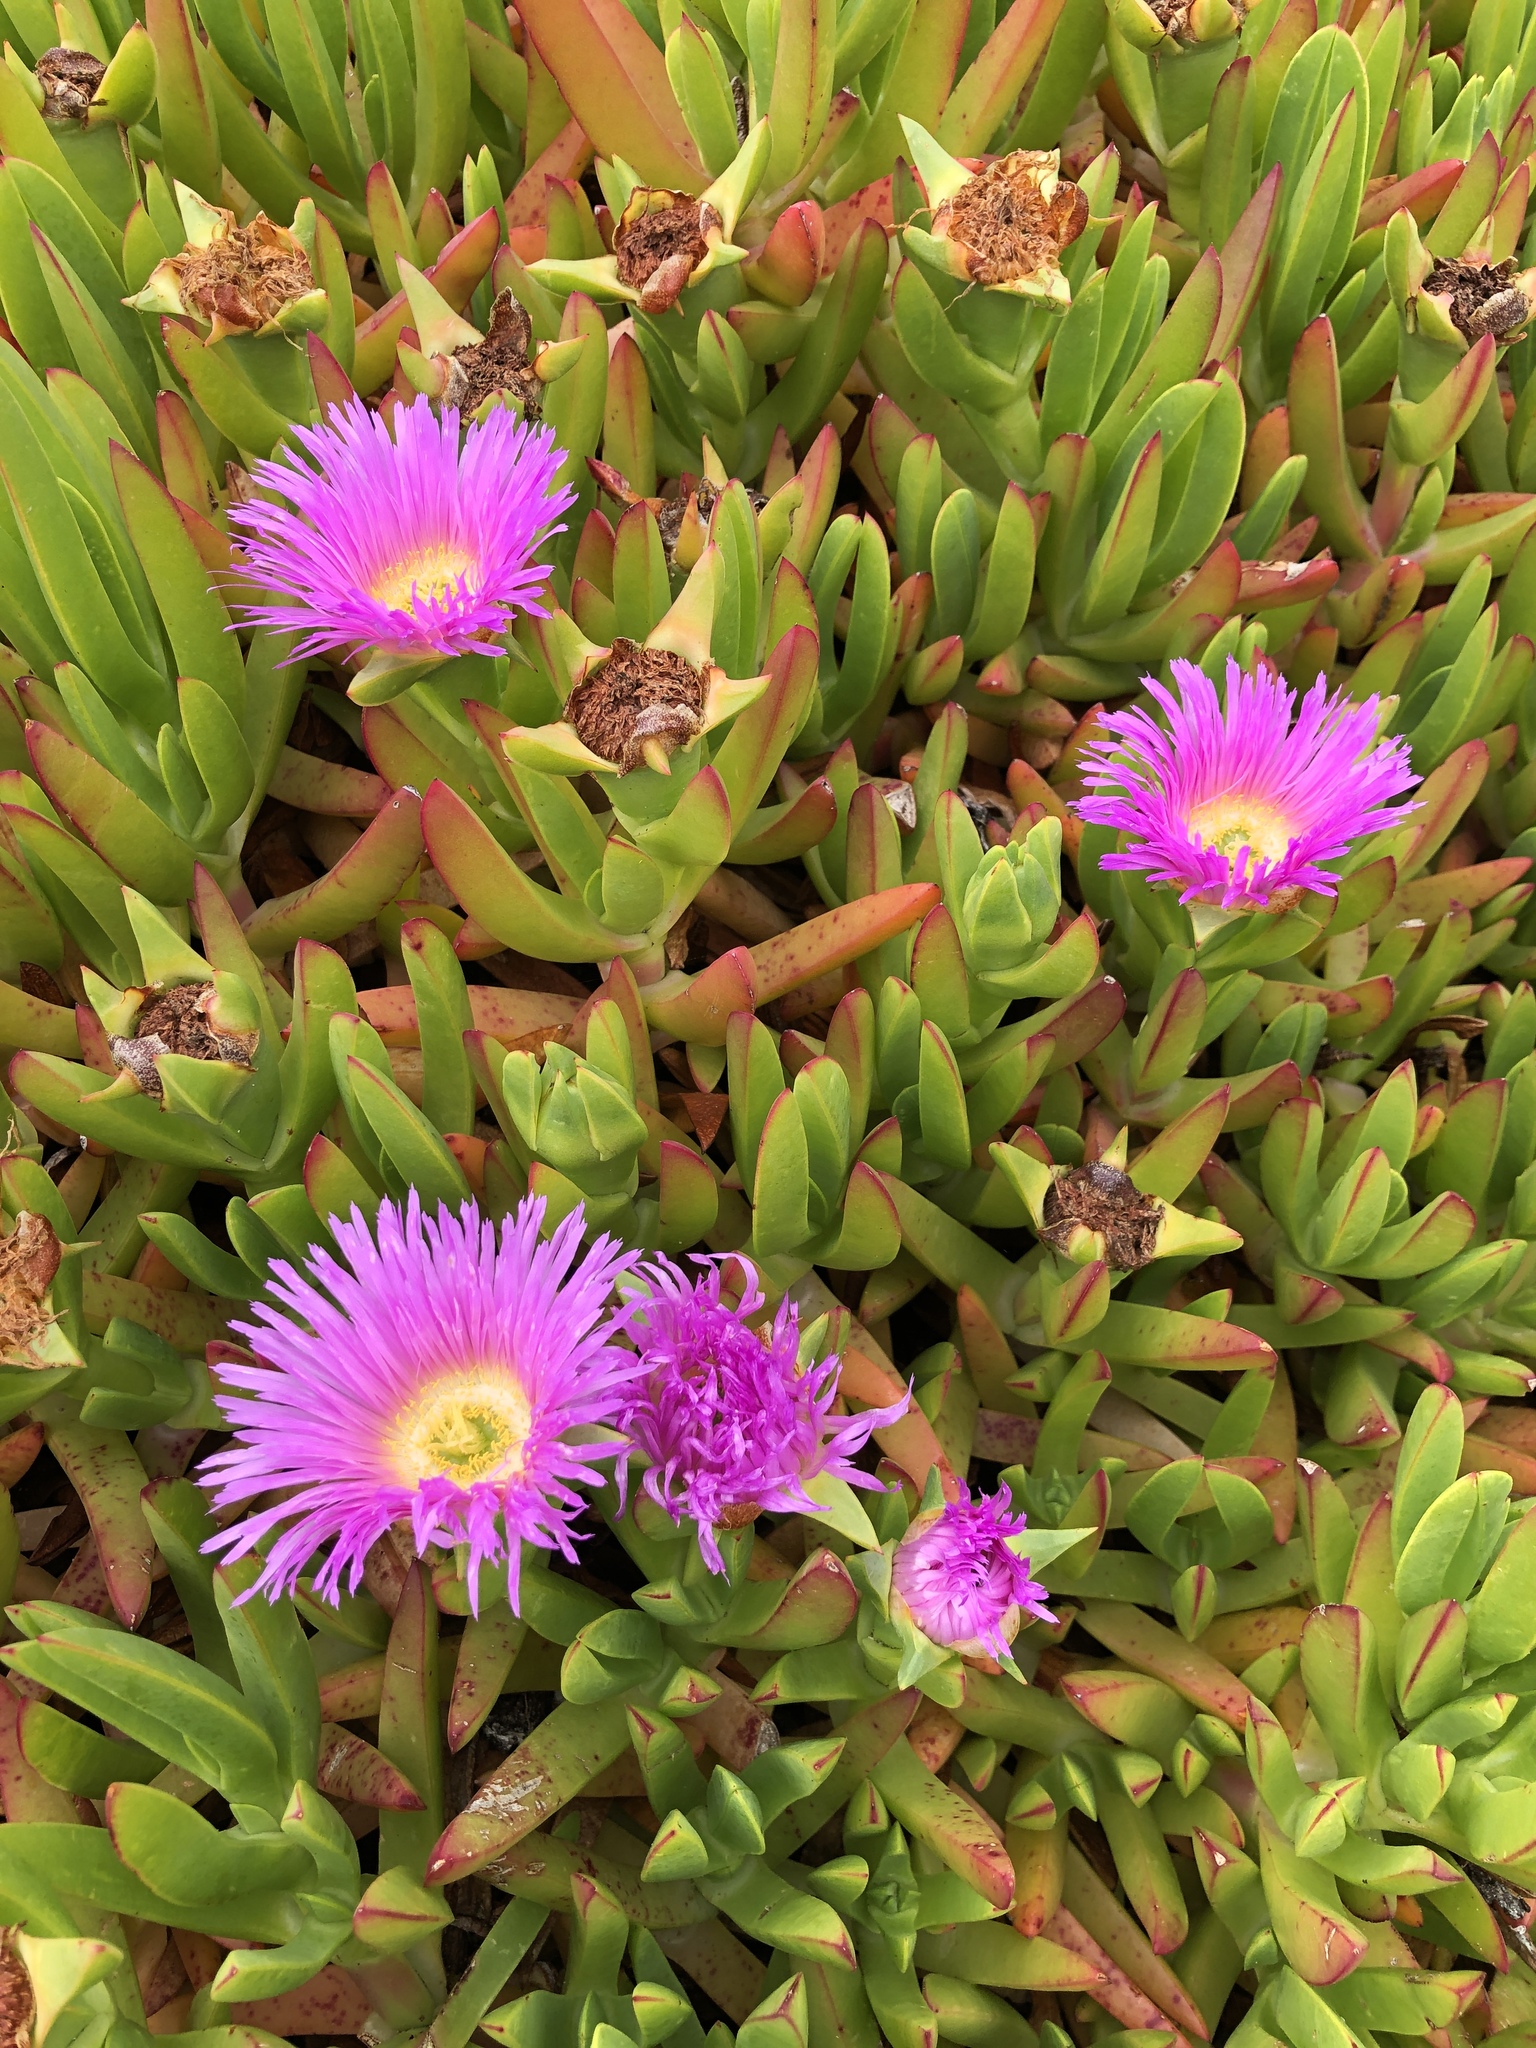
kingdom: Plantae
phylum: Tracheophyta
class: Magnoliopsida
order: Caryophyllales
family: Aizoaceae
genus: Carpobrotus
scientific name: Carpobrotus chilensis
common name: Sea fig
